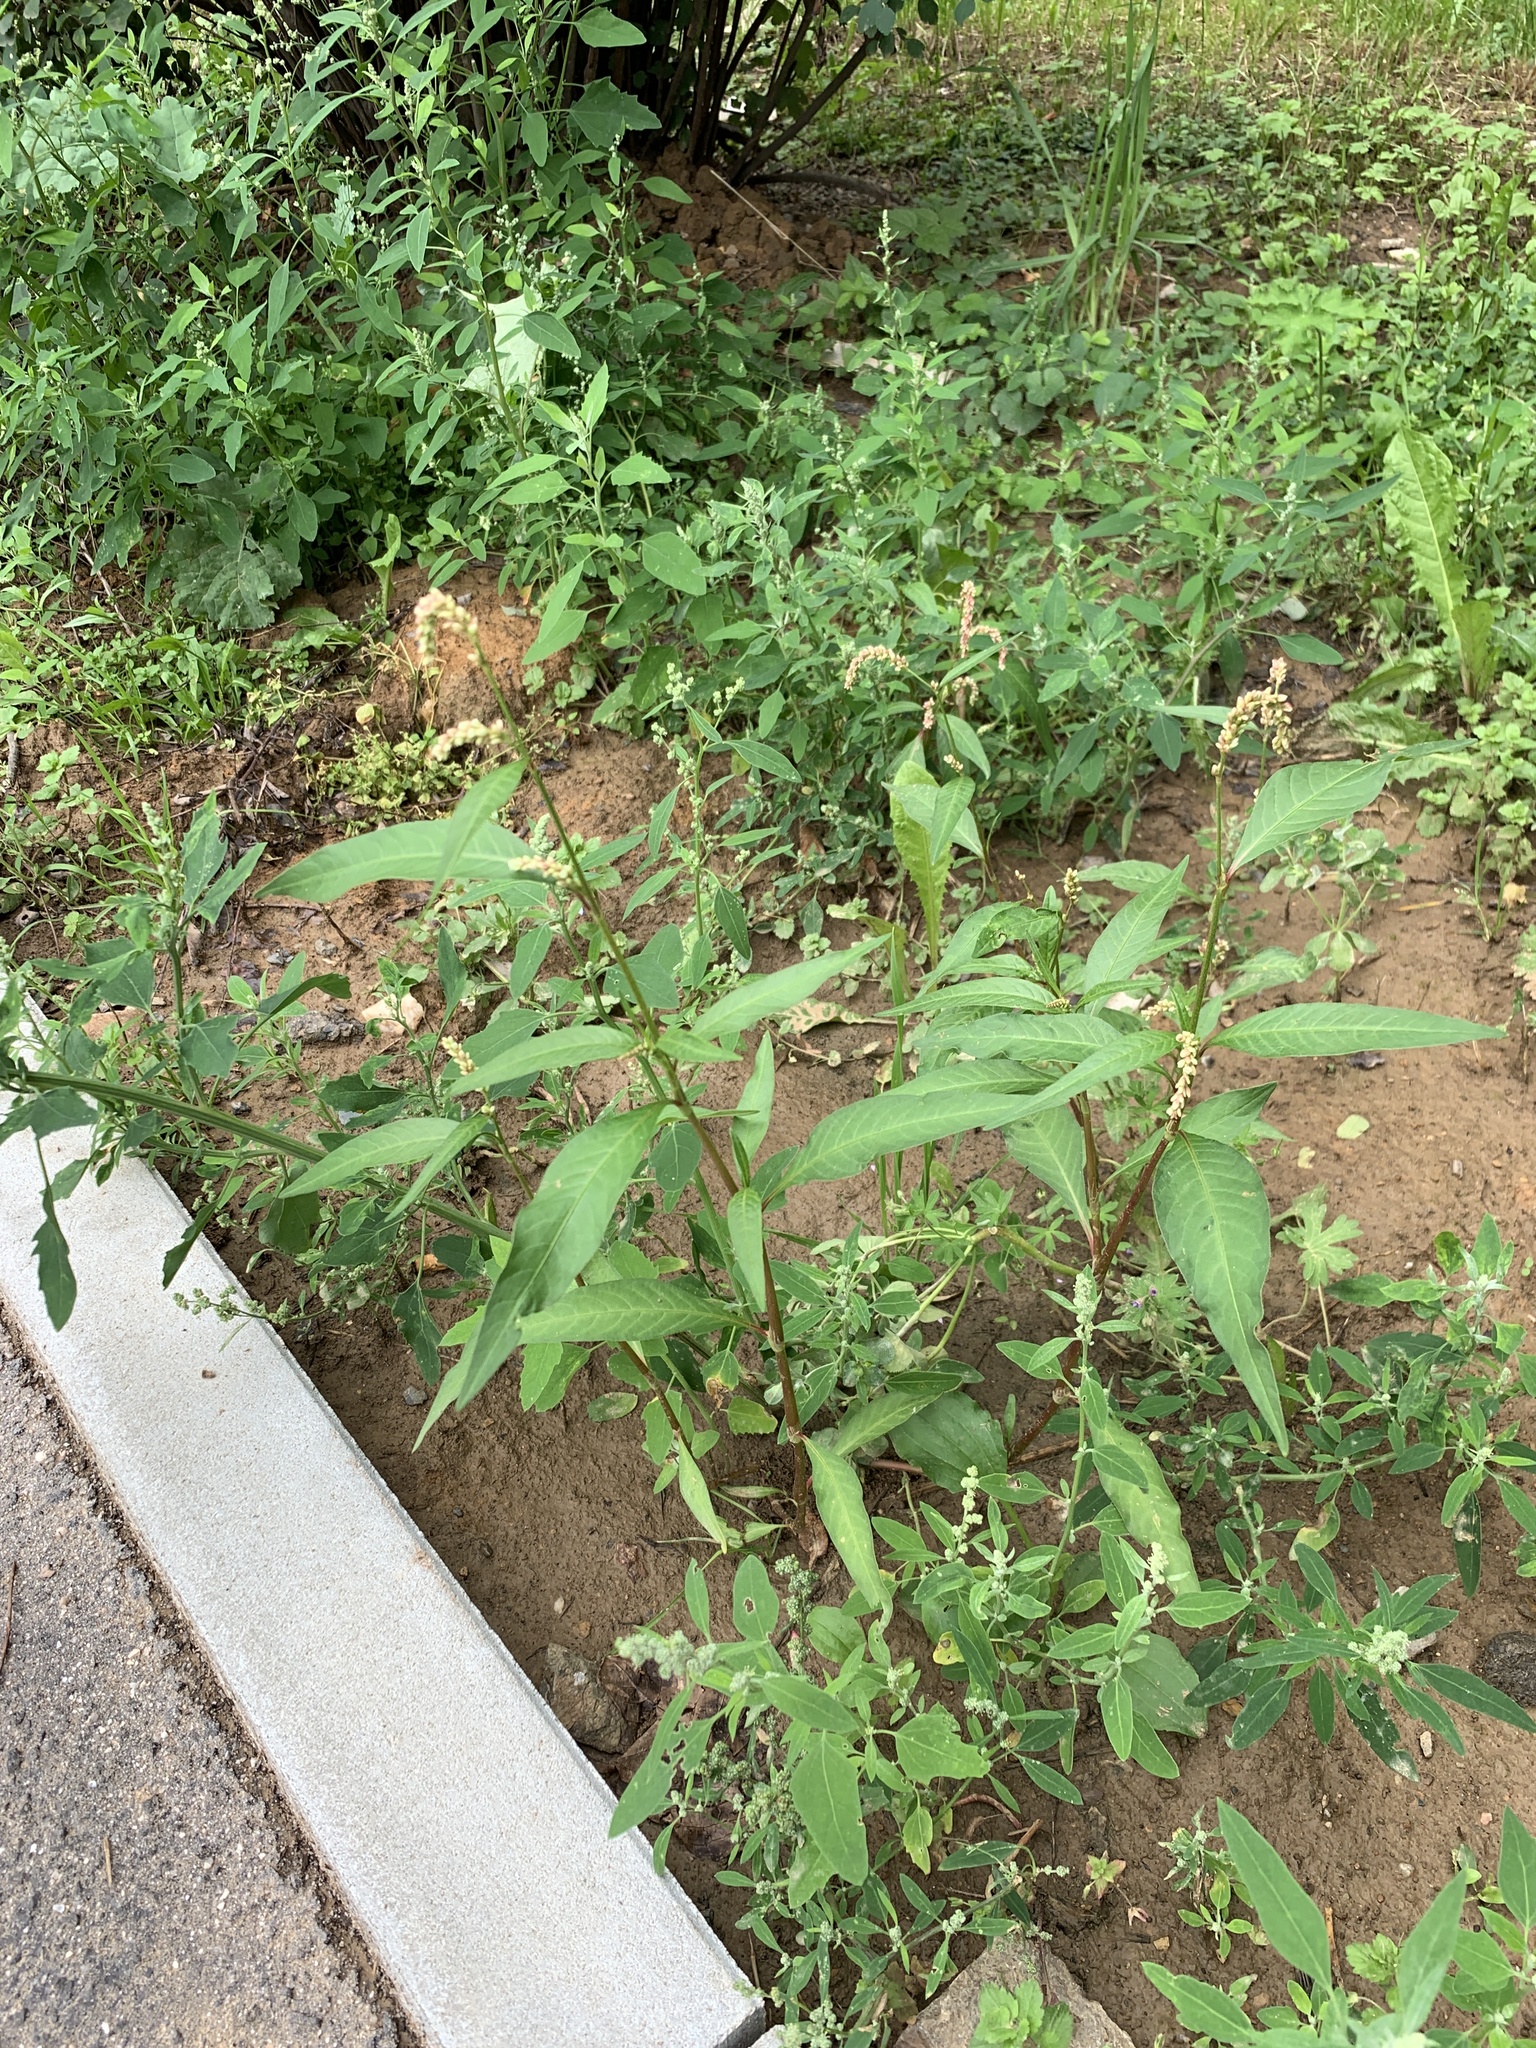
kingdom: Plantae
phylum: Tracheophyta
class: Magnoliopsida
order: Caryophyllales
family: Polygonaceae
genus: Persicaria
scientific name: Persicaria lapathifolia
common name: Curlytop knotweed
